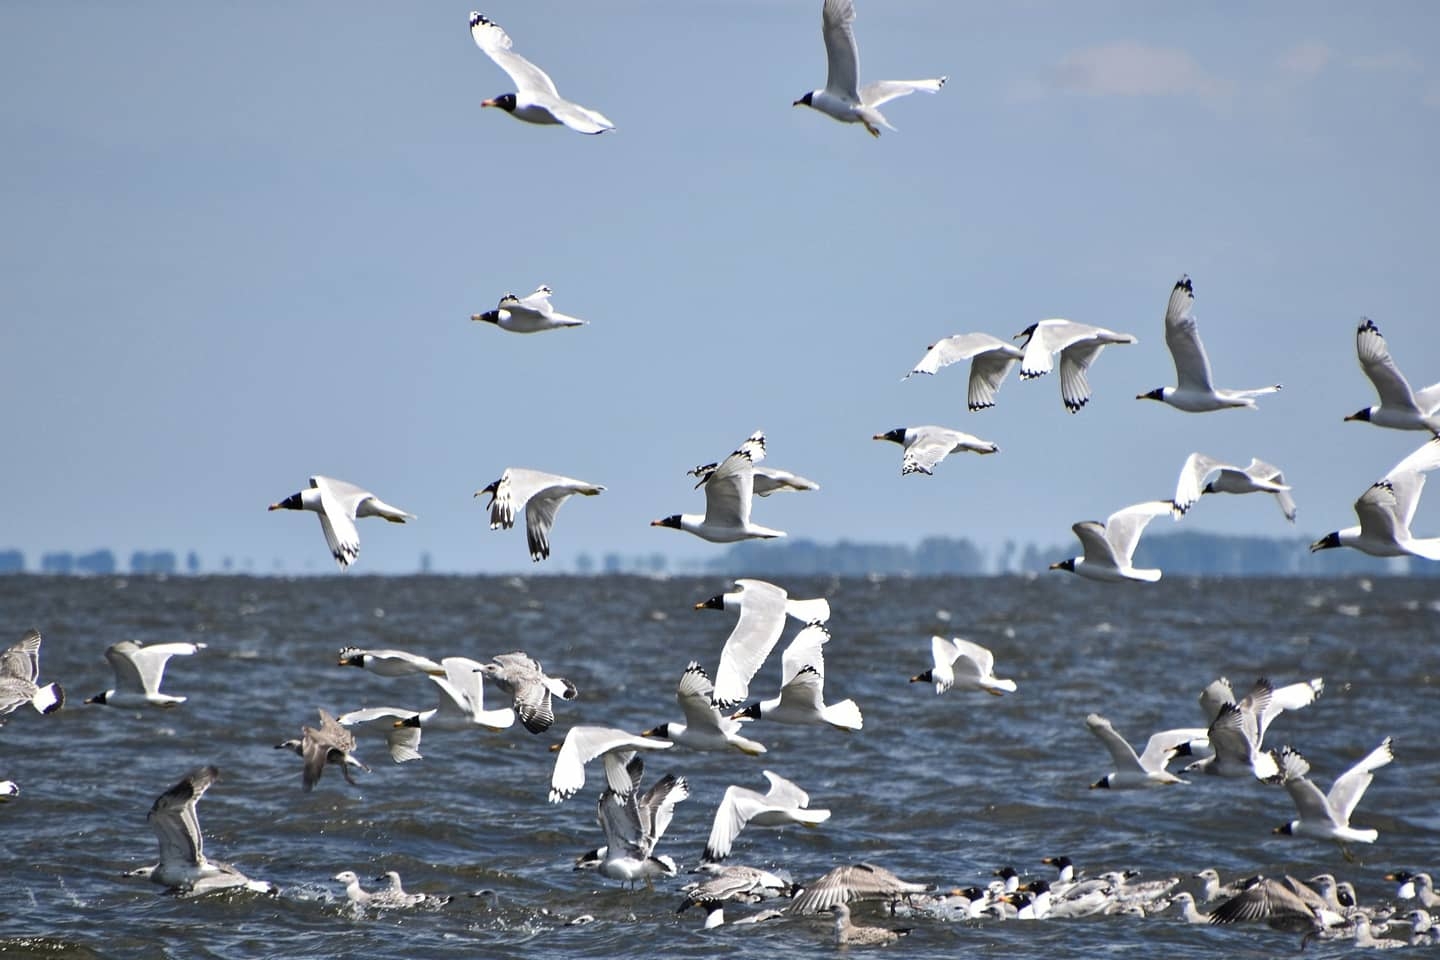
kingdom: Animalia
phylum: Chordata
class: Aves
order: Charadriiformes
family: Laridae
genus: Ichthyaetus
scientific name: Ichthyaetus ichthyaetus
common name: Pallas's gull
